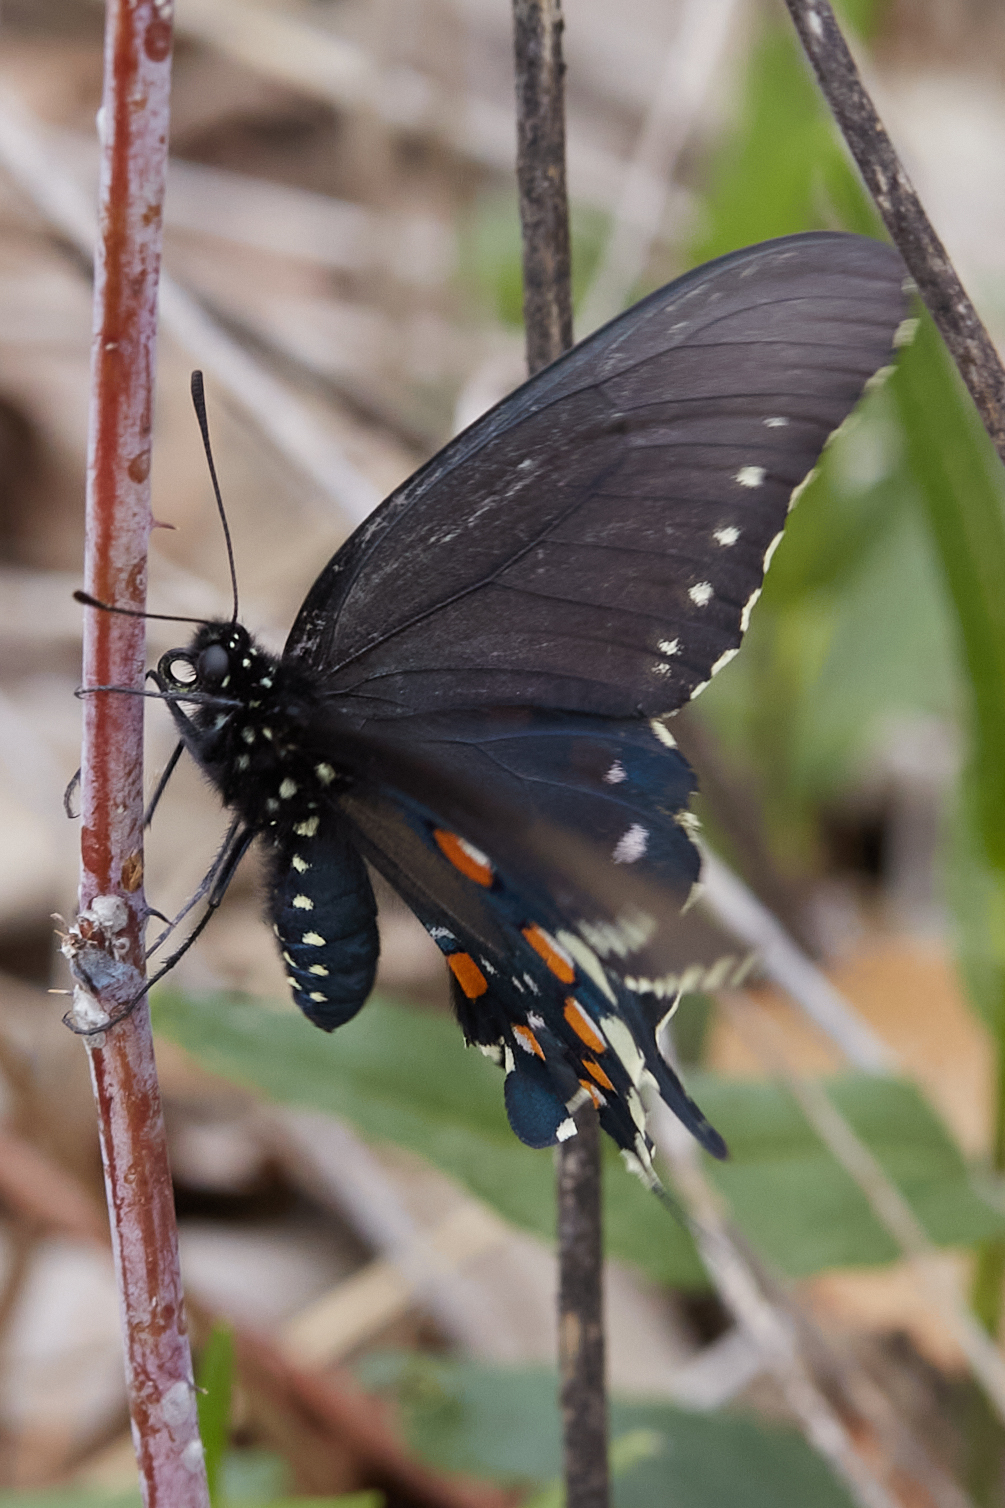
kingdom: Animalia
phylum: Arthropoda
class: Insecta
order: Lepidoptera
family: Papilionidae
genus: Battus
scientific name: Battus philenor
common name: Pipevine swallowtail
